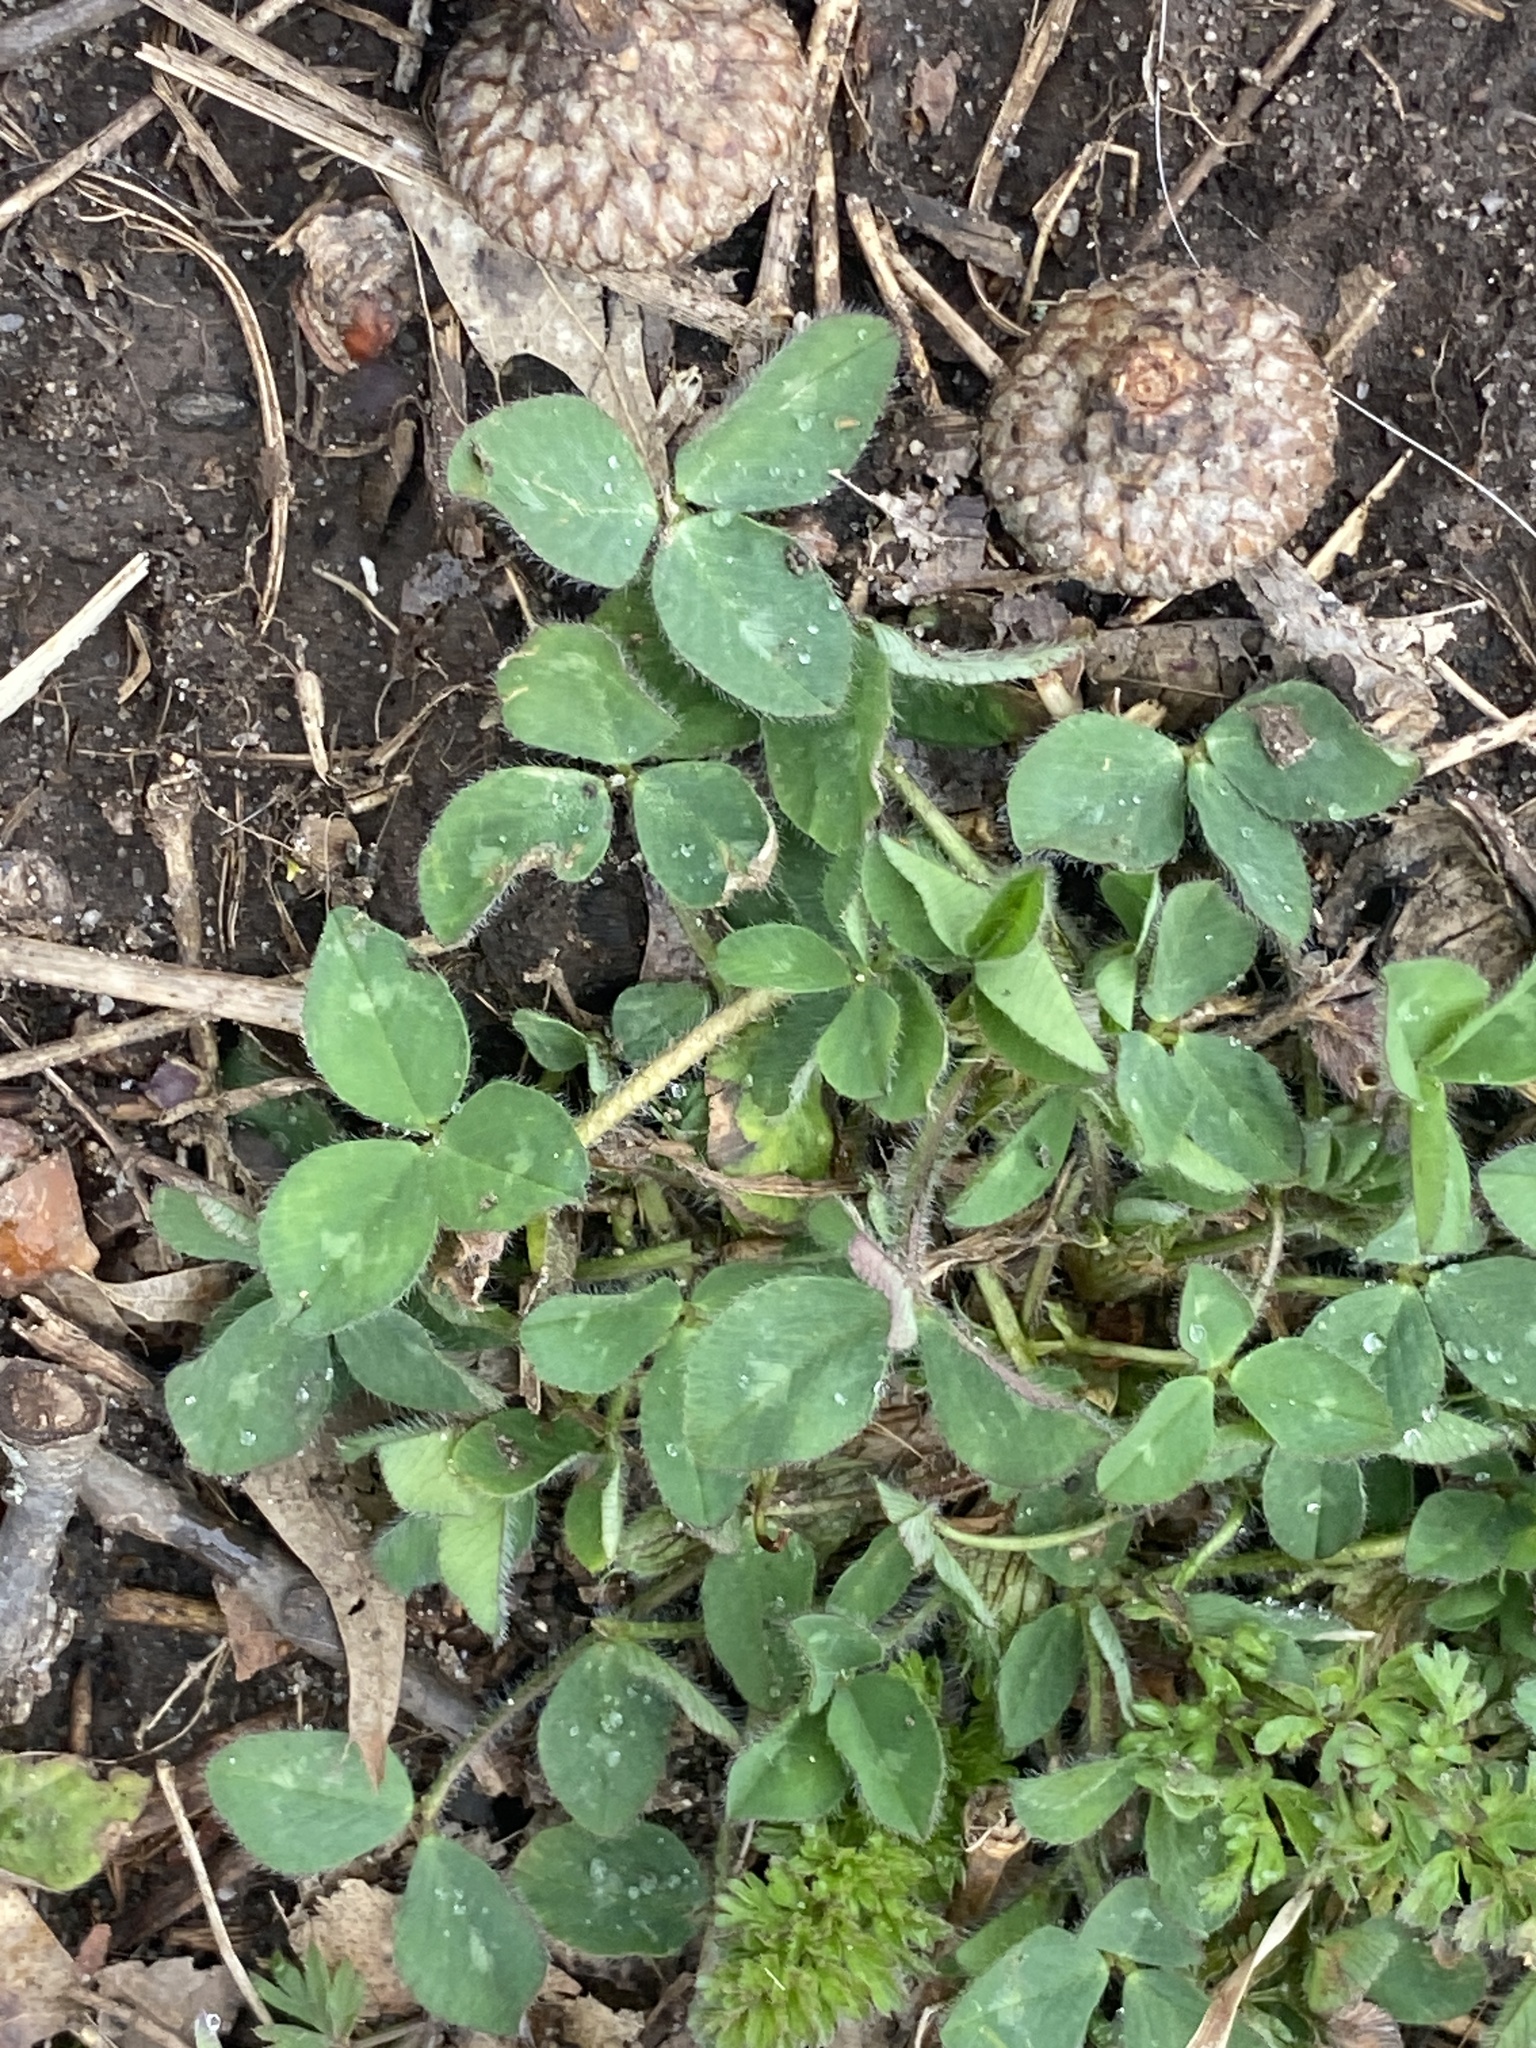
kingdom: Plantae
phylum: Tracheophyta
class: Magnoliopsida
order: Fabales
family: Fabaceae
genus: Trifolium
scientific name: Trifolium pratense
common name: Red clover
